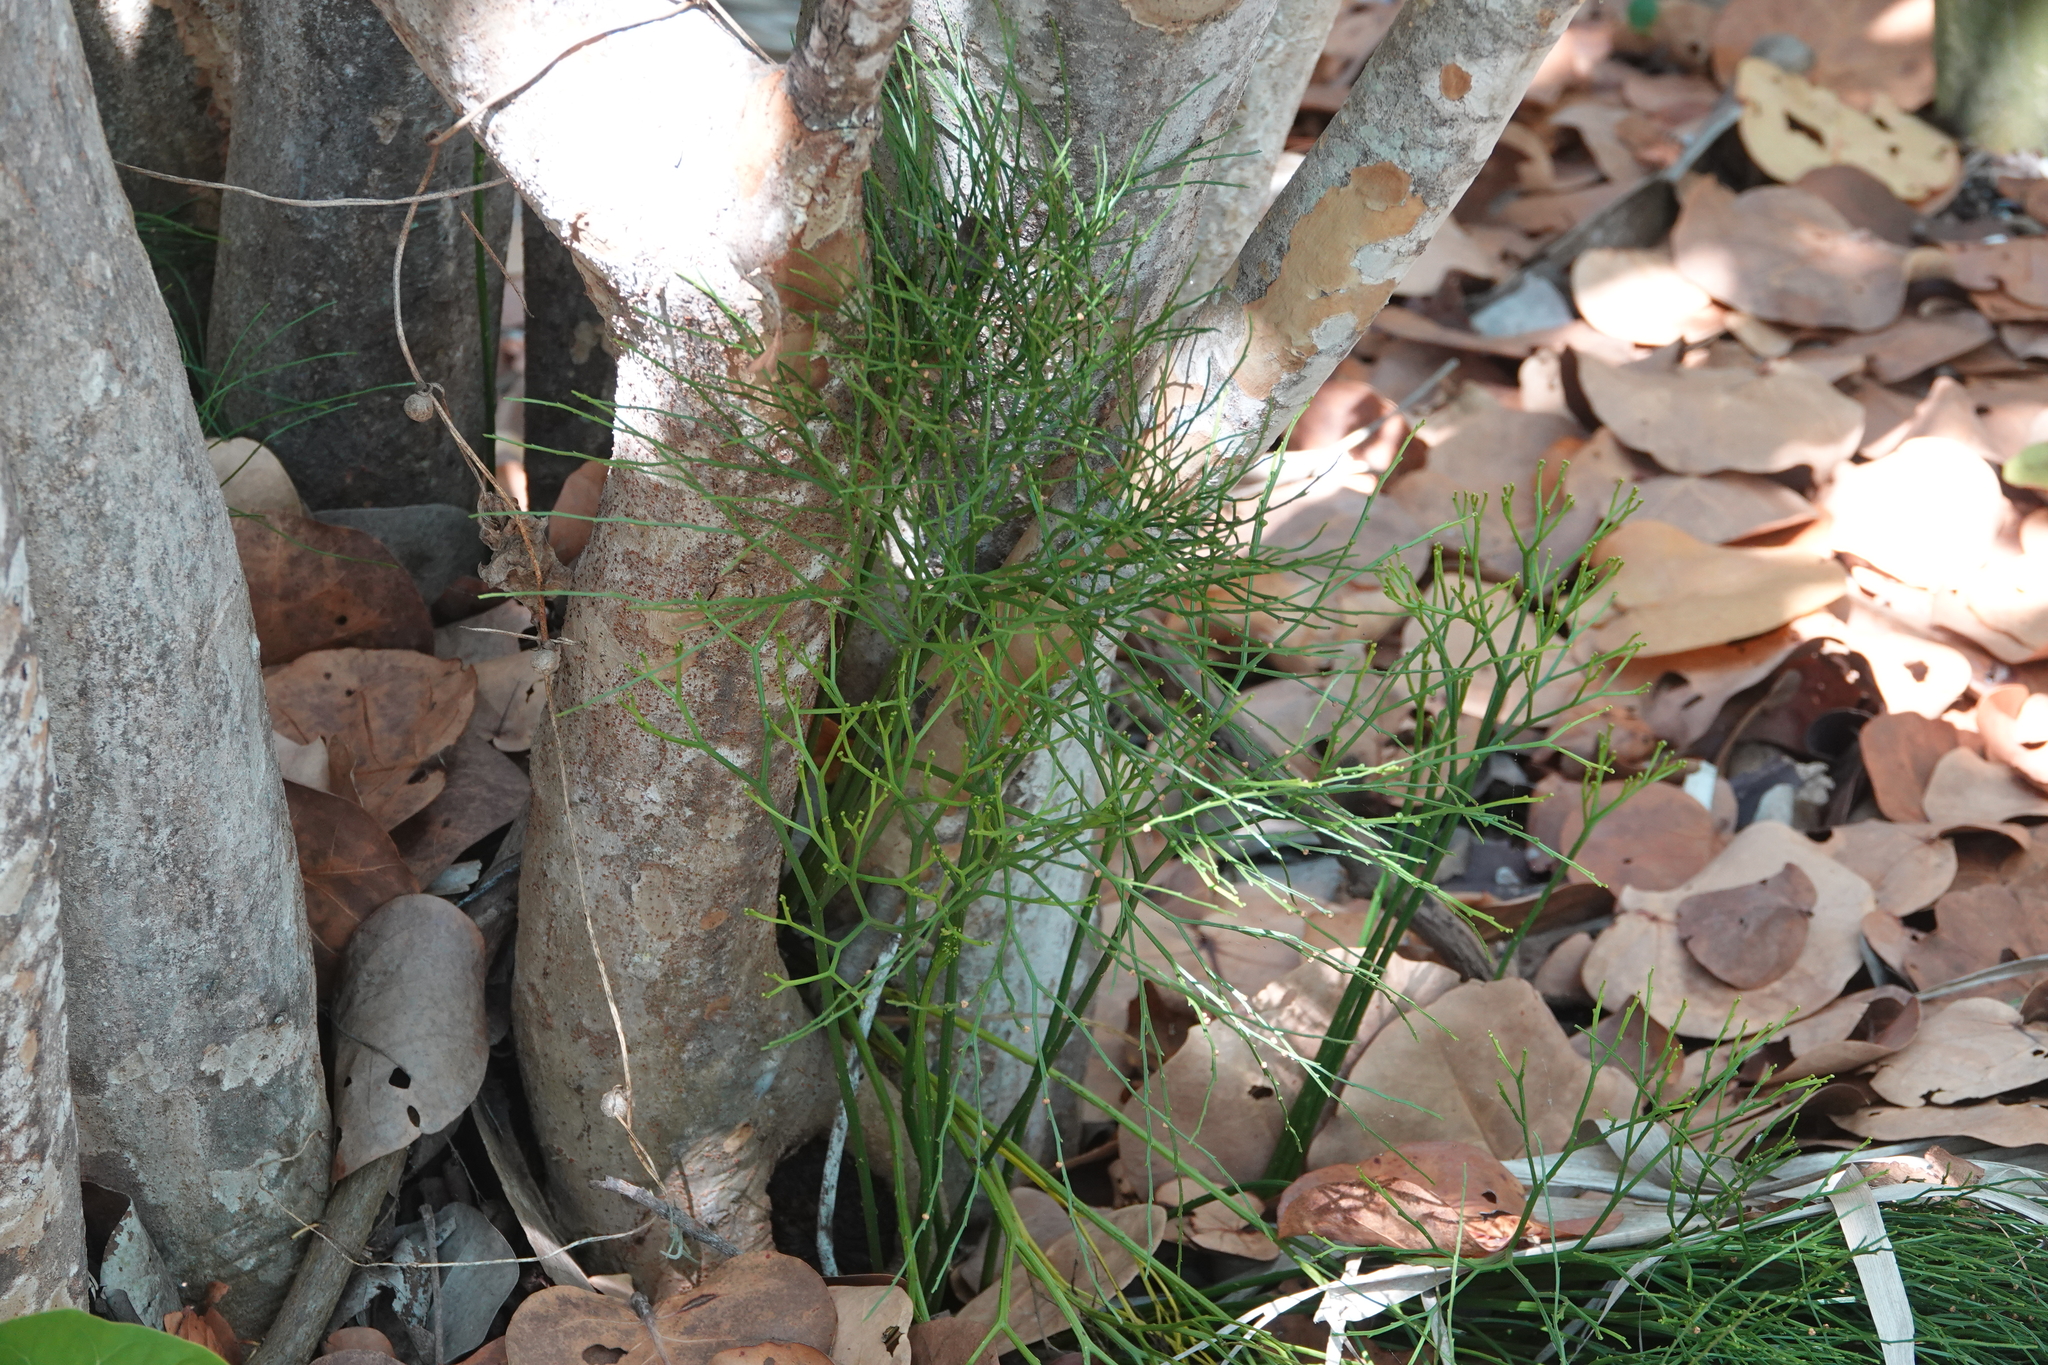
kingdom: Plantae
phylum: Tracheophyta
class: Polypodiopsida
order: Psilotales
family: Psilotaceae
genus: Psilotum
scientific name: Psilotum nudum
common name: Skeleton fork fern
